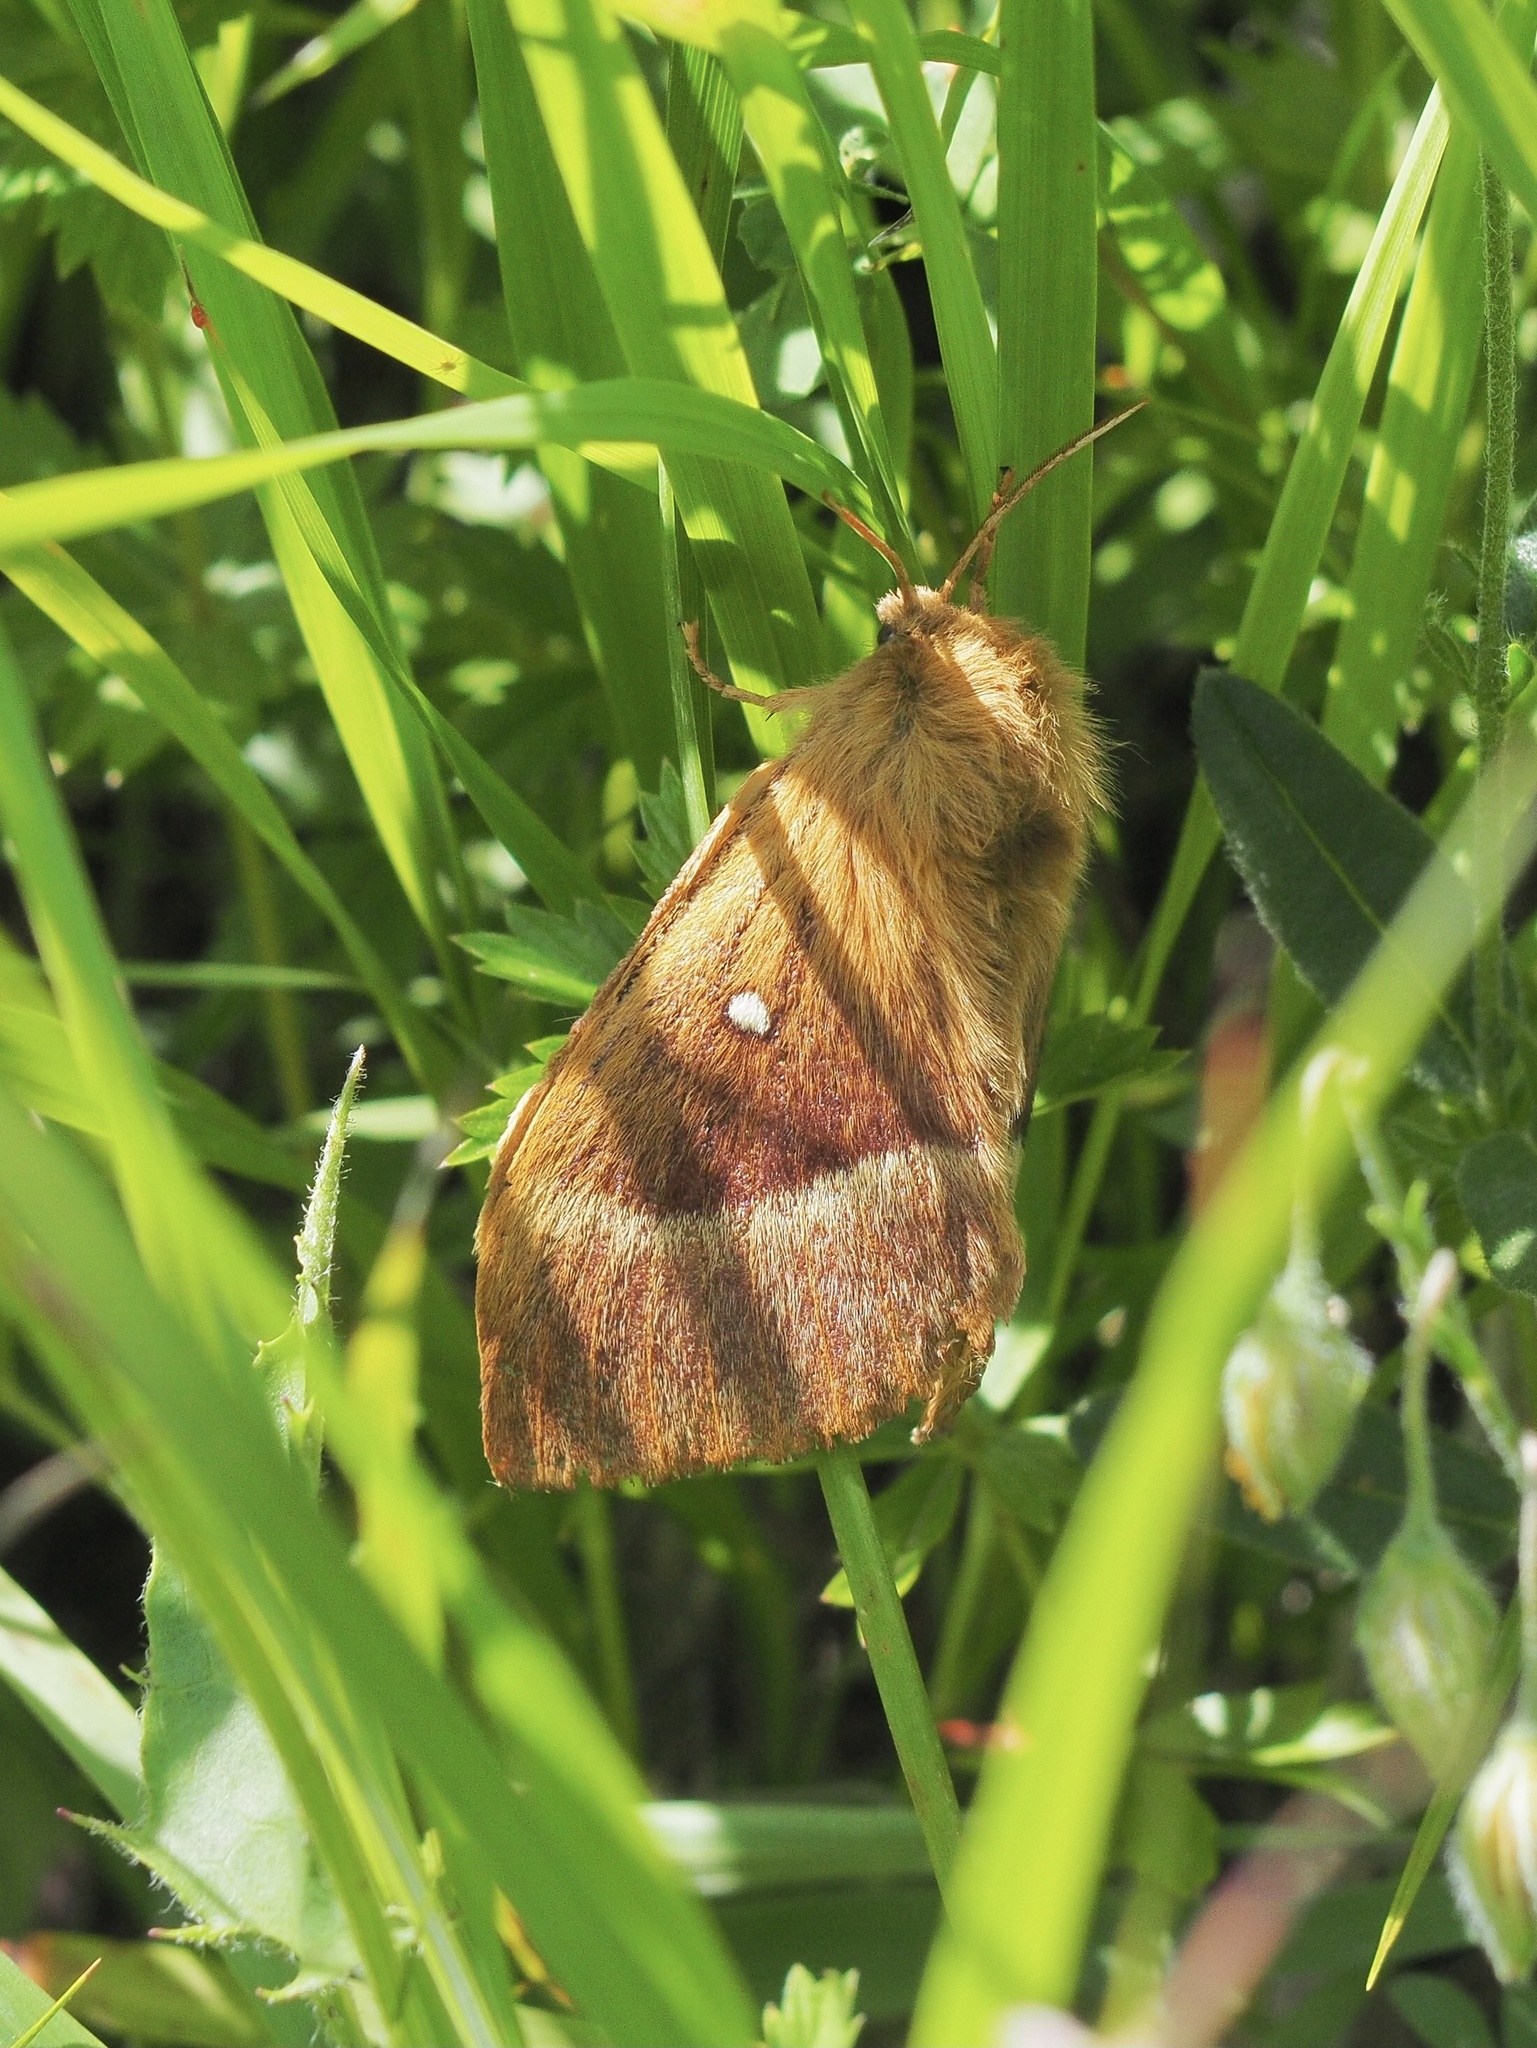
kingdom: Animalia
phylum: Arthropoda
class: Insecta
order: Lepidoptera
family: Lasiocampidae
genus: Lasiocampa
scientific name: Lasiocampa quercus
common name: Oak eggar
